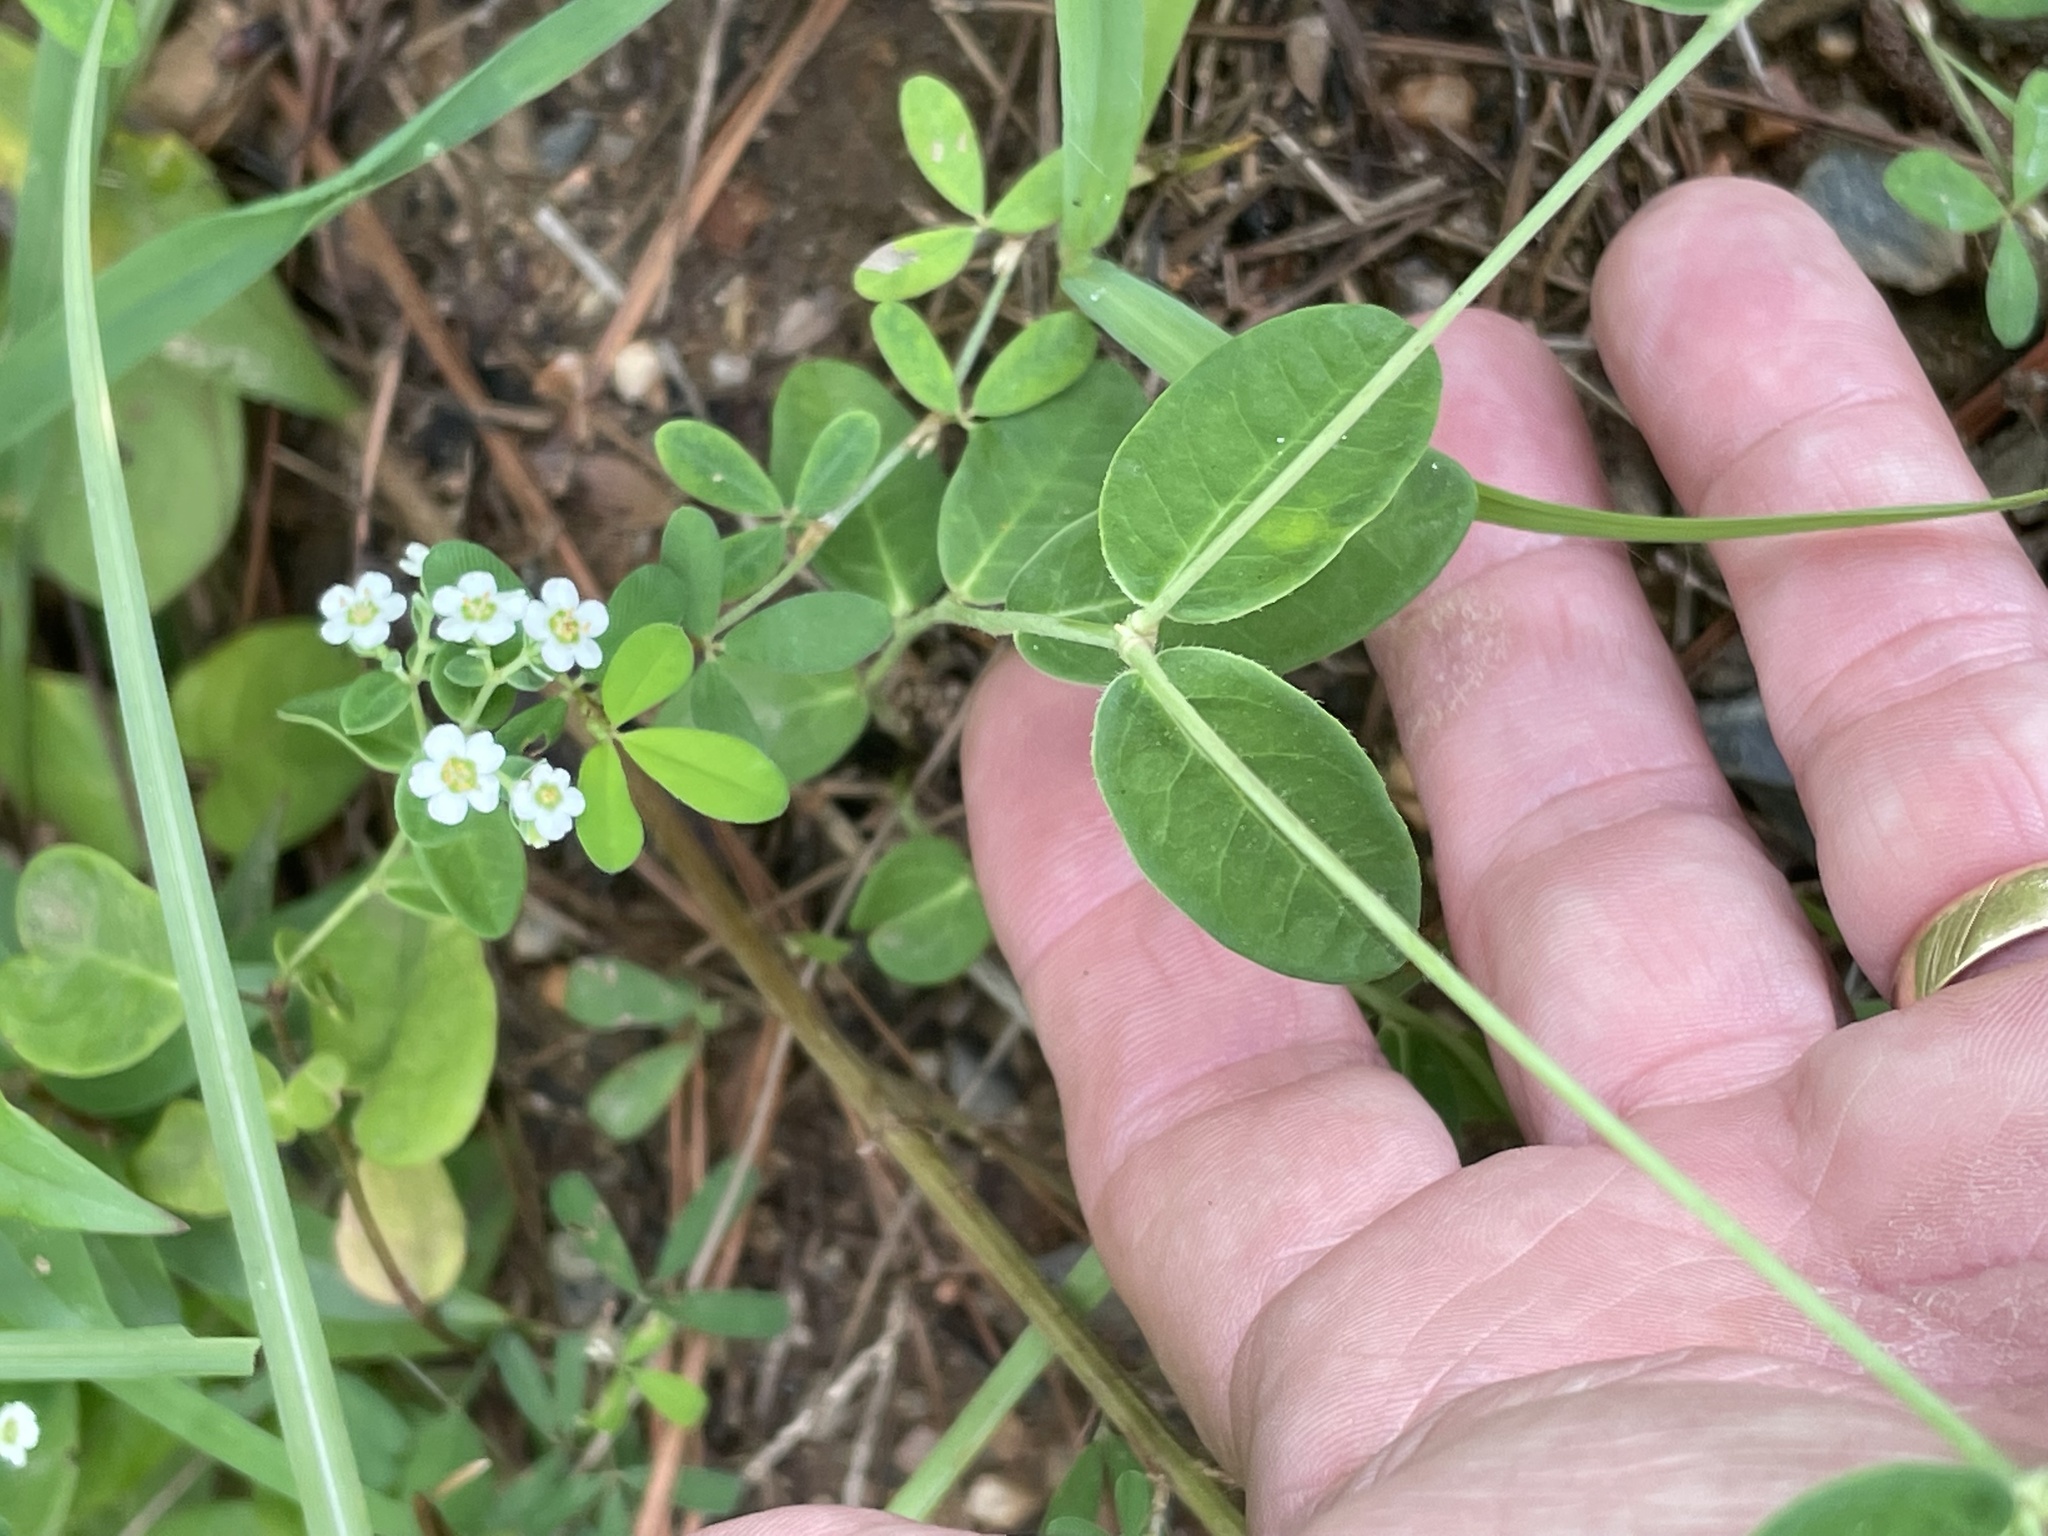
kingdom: Plantae
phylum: Tracheophyta
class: Magnoliopsida
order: Malpighiales
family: Euphorbiaceae
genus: Euphorbia
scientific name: Euphorbia corollata
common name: Flowering spurge
